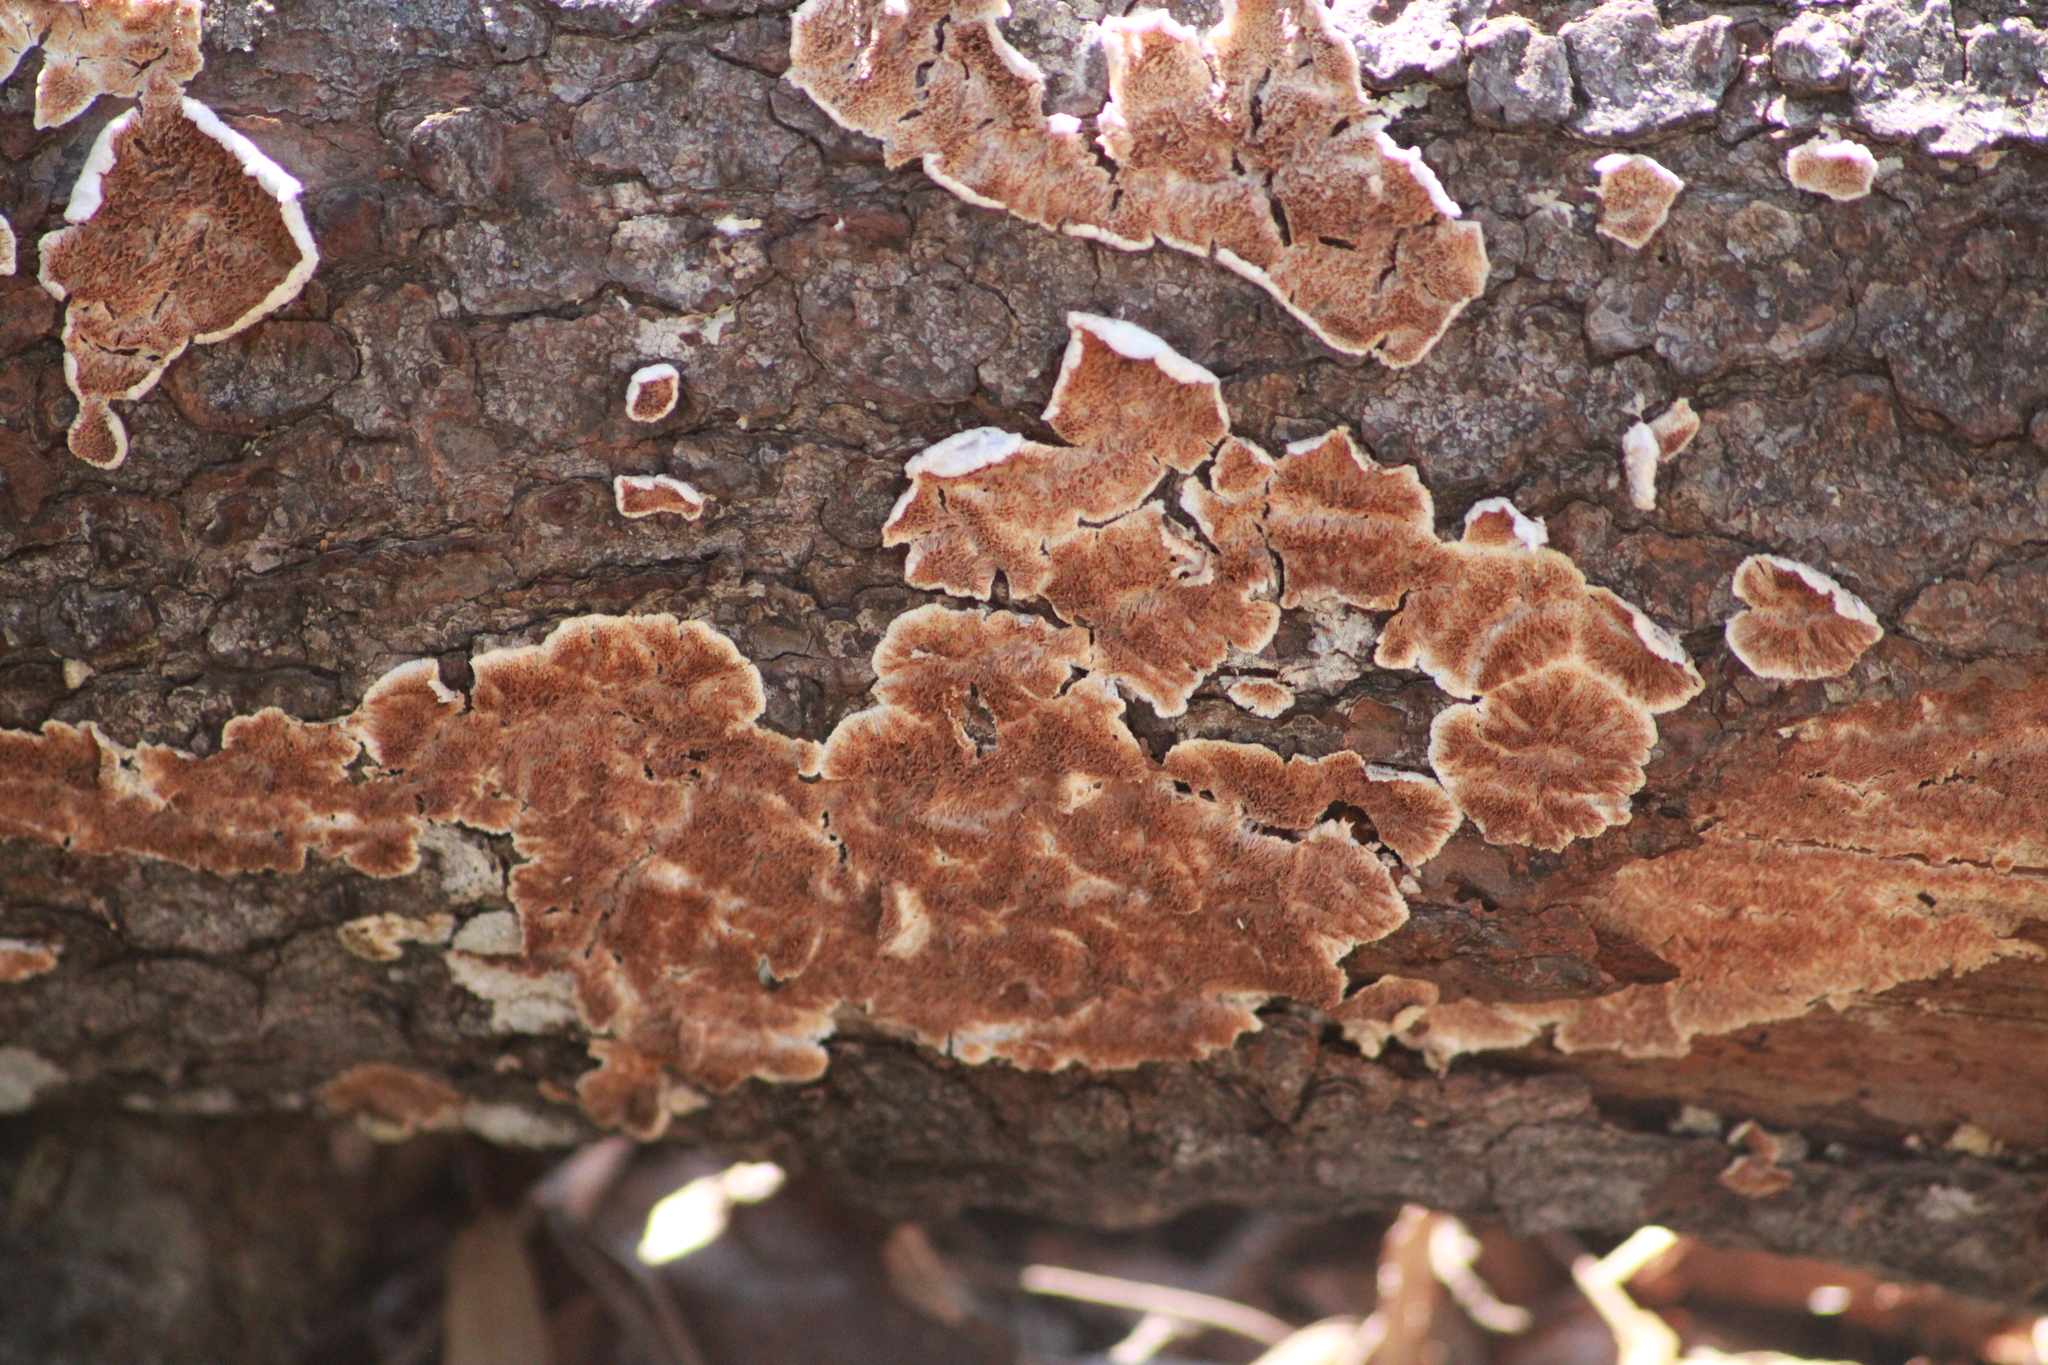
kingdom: Fungi
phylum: Basidiomycota
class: Agaricomycetes
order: Polyporales
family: Steccherinaceae
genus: Steccherinum
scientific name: Steccherinum ochraceum
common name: Ochre spreading tooth
